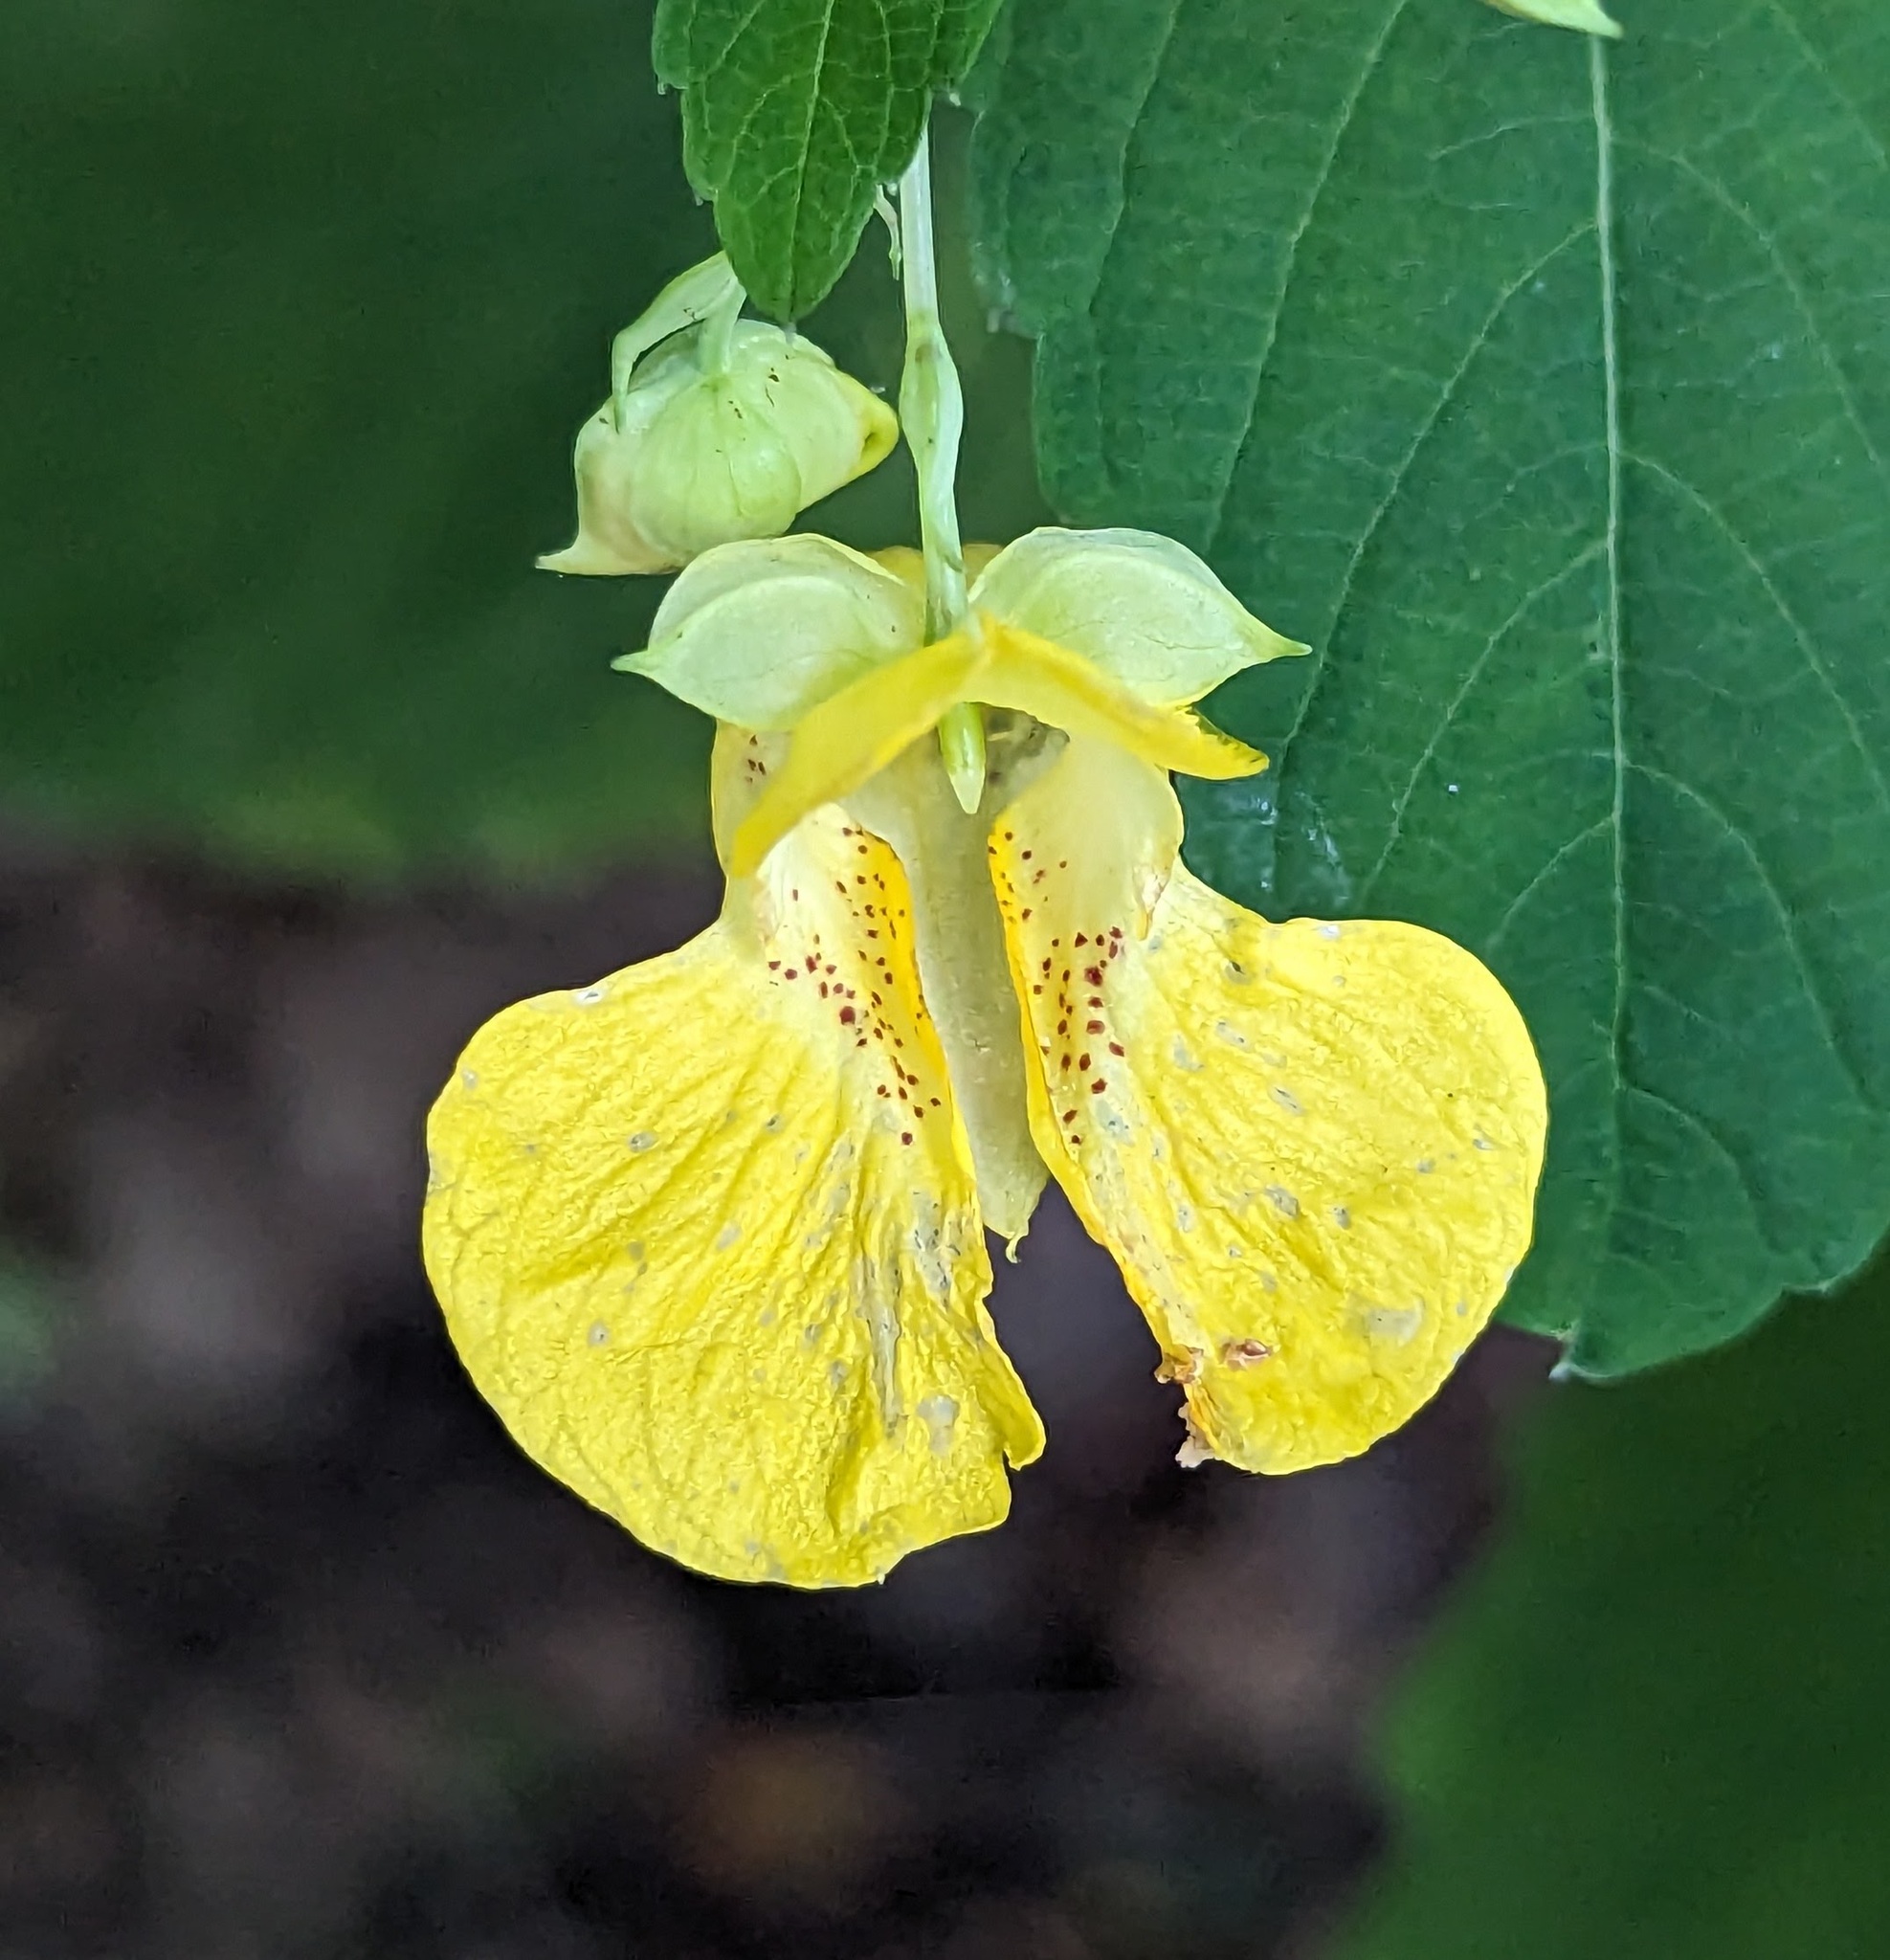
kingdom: Plantae
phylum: Tracheophyta
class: Magnoliopsida
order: Ericales
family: Balsaminaceae
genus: Impatiens
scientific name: Impatiens pallida
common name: Pale snapweed
